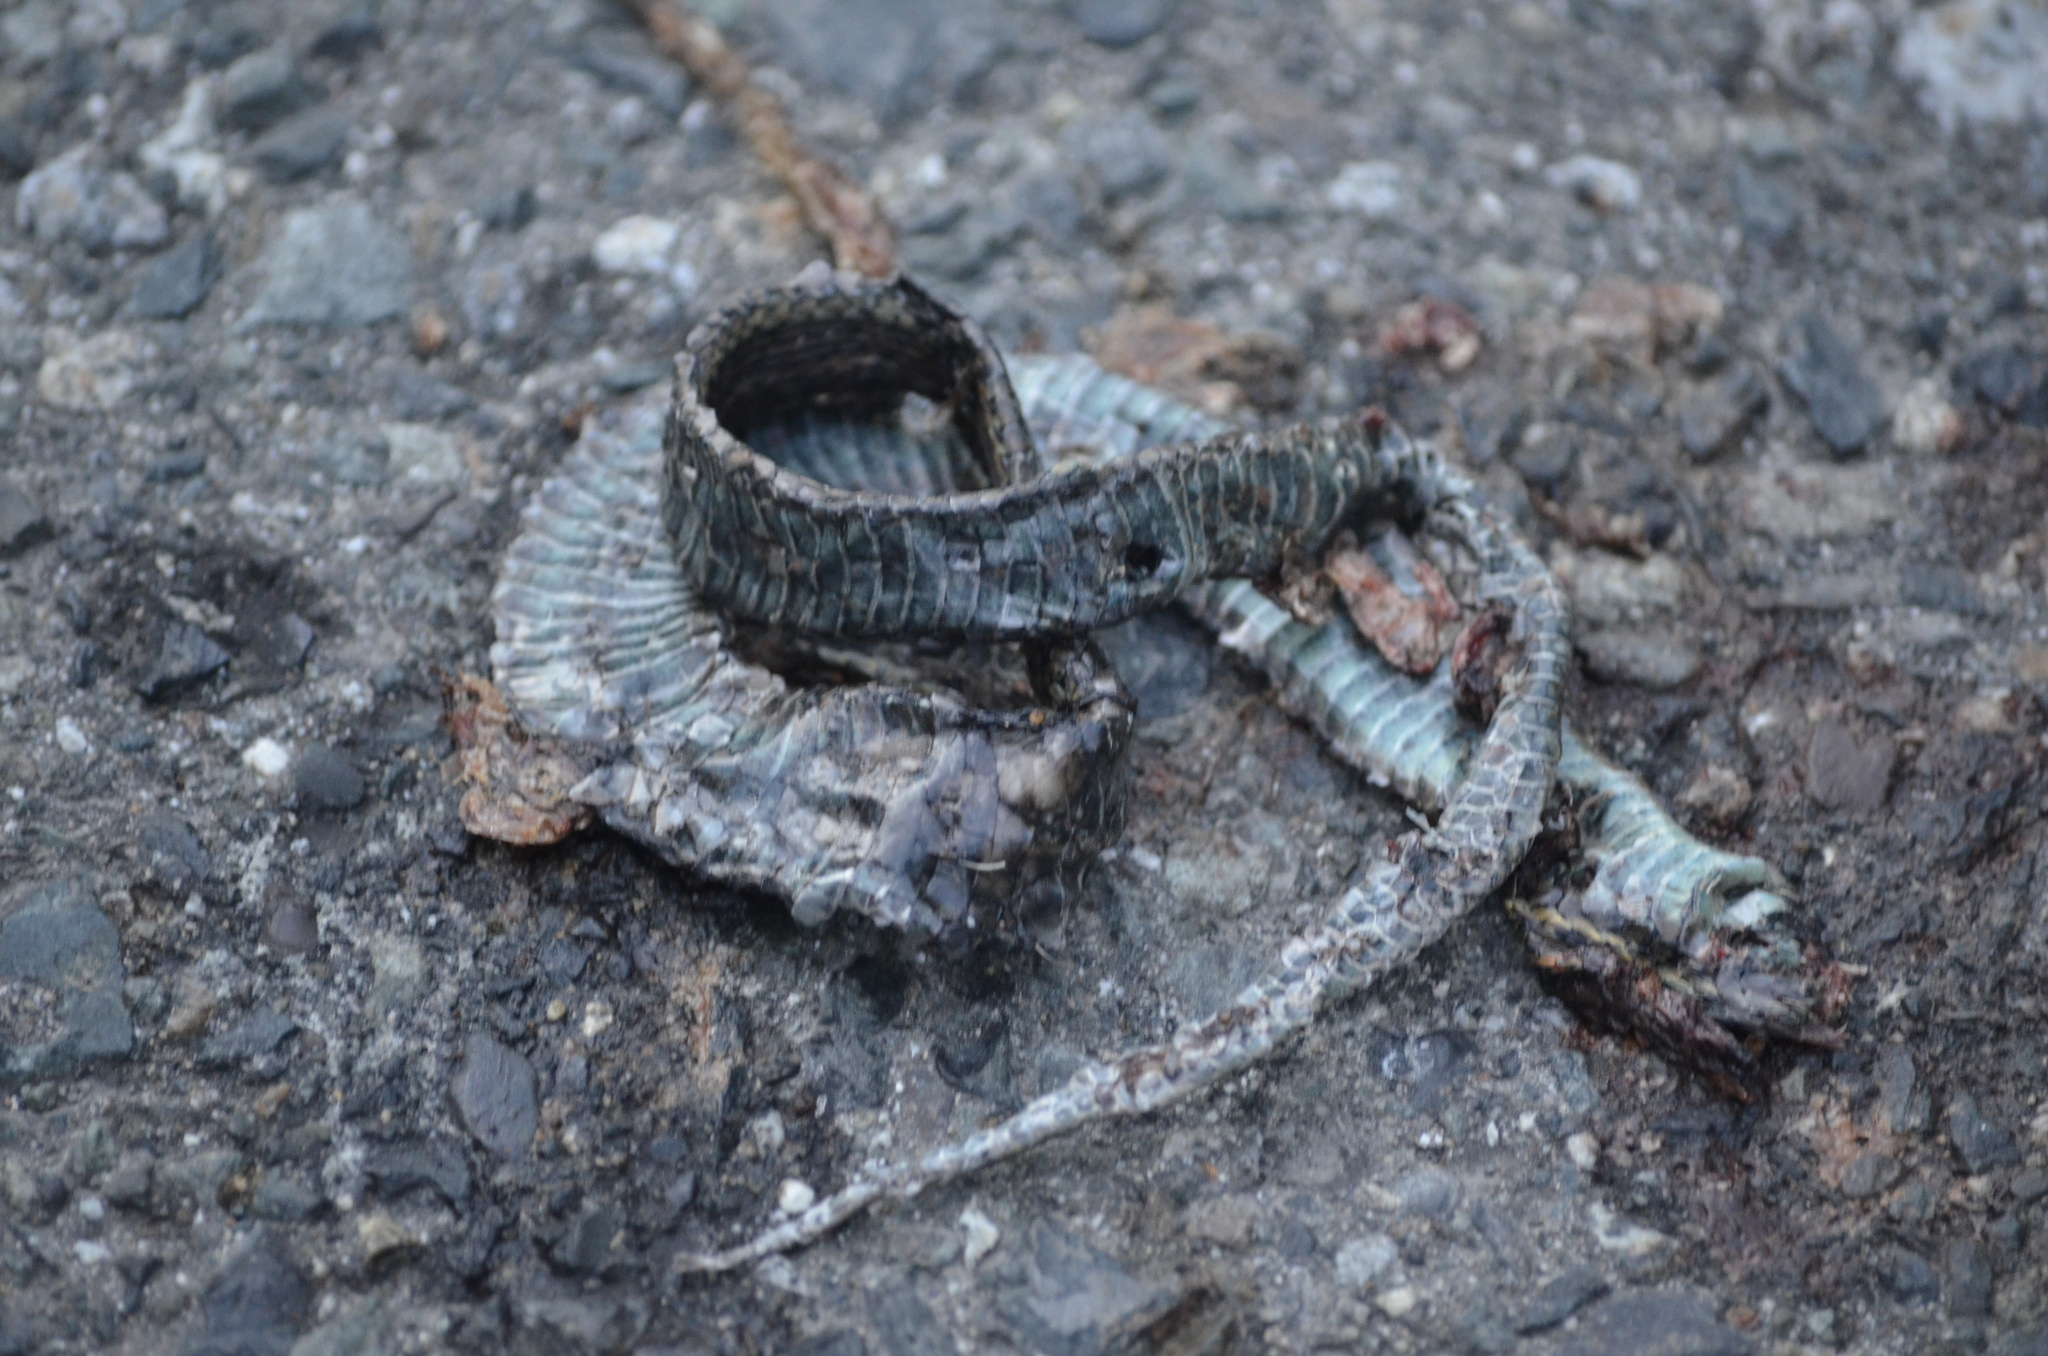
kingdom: Animalia
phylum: Chordata
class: Squamata
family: Colubridae
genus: Thamnophis
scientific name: Thamnophis ordinoides
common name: Northwestern garter snake
